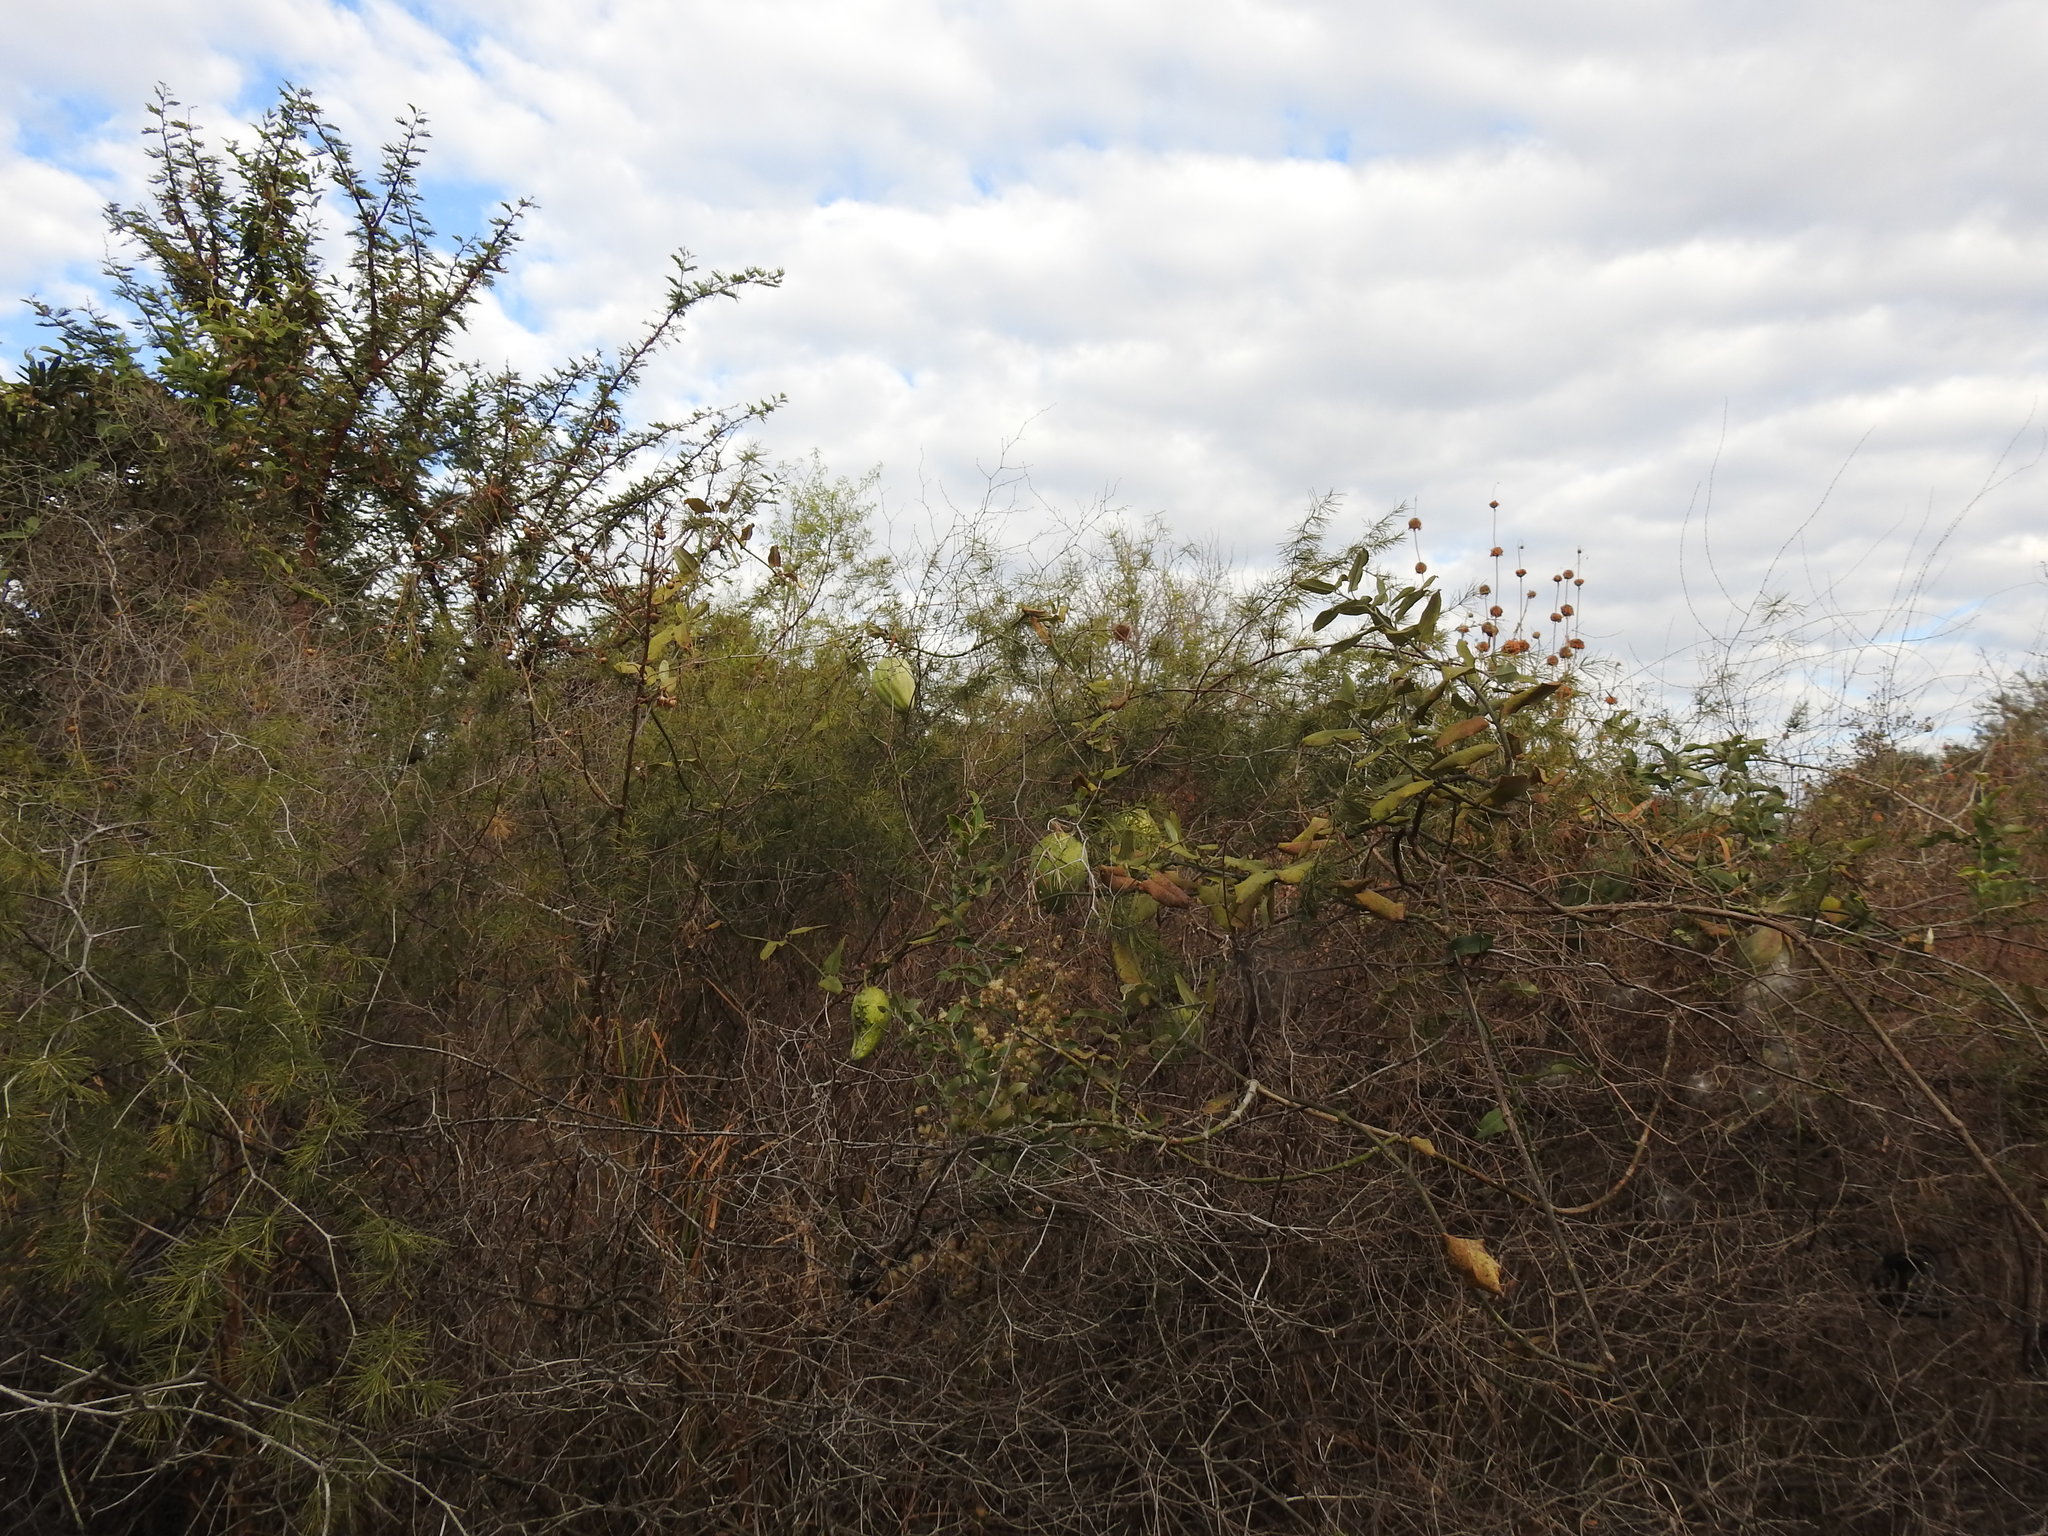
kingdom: Plantae
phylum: Tracheophyta
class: Magnoliopsida
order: Gentianales
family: Apocynaceae
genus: Araujia
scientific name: Araujia sericifera
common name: White bladderflower
